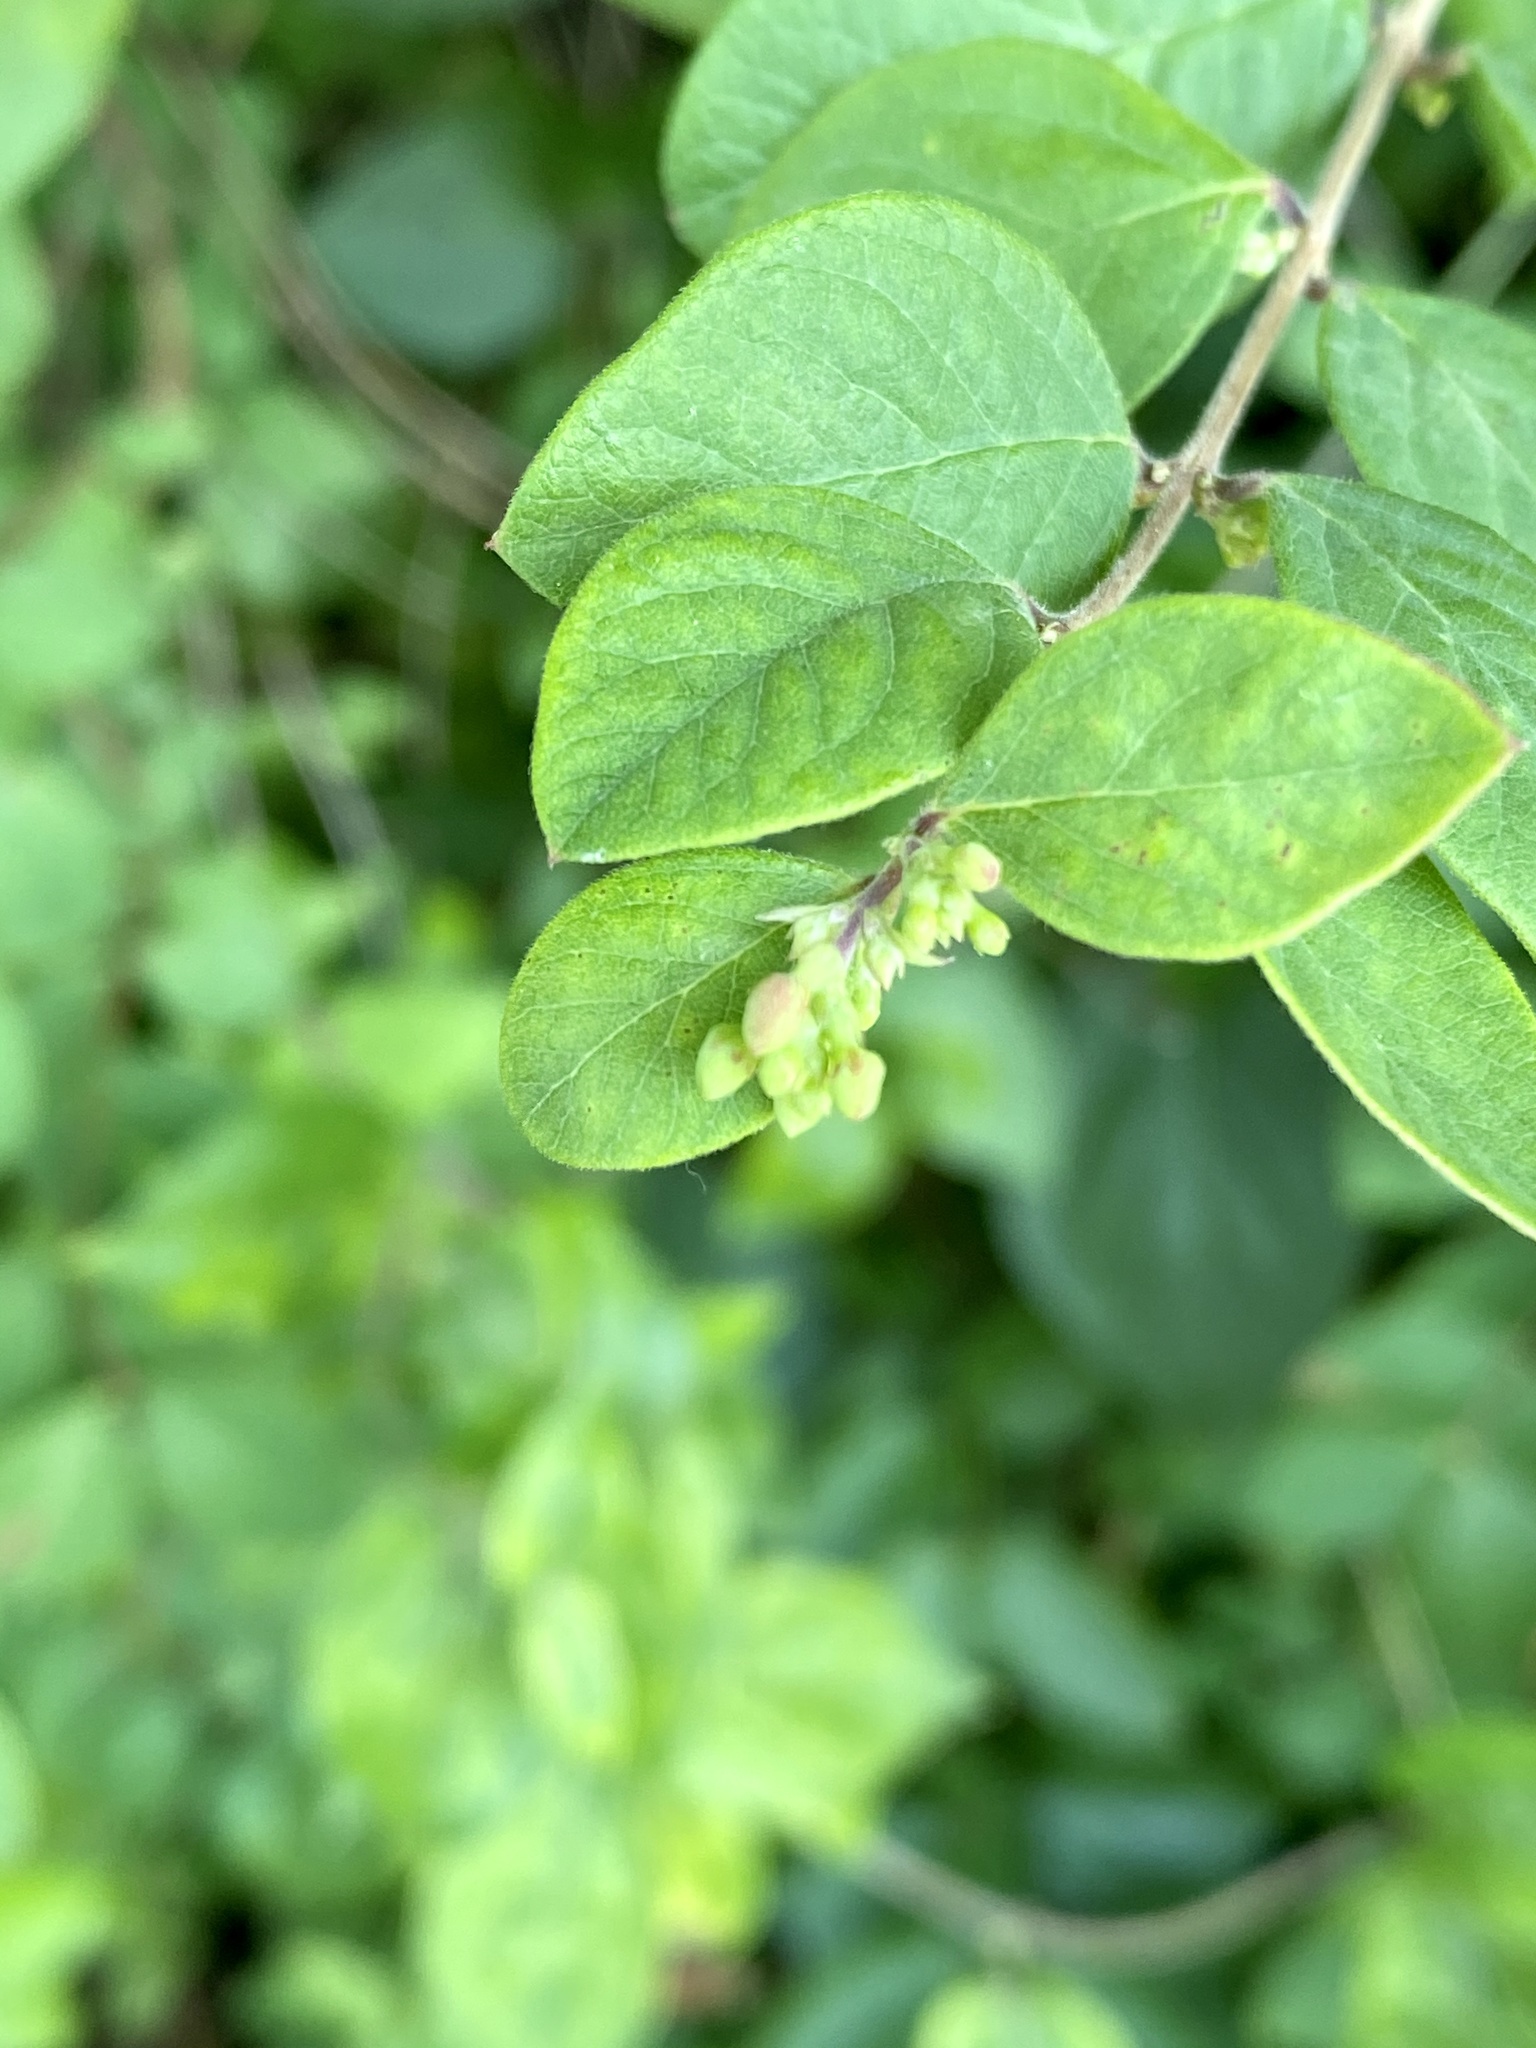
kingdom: Plantae
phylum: Tracheophyta
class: Magnoliopsida
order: Dipsacales
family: Caprifoliaceae
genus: Symphoricarpos
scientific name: Symphoricarpos albus
